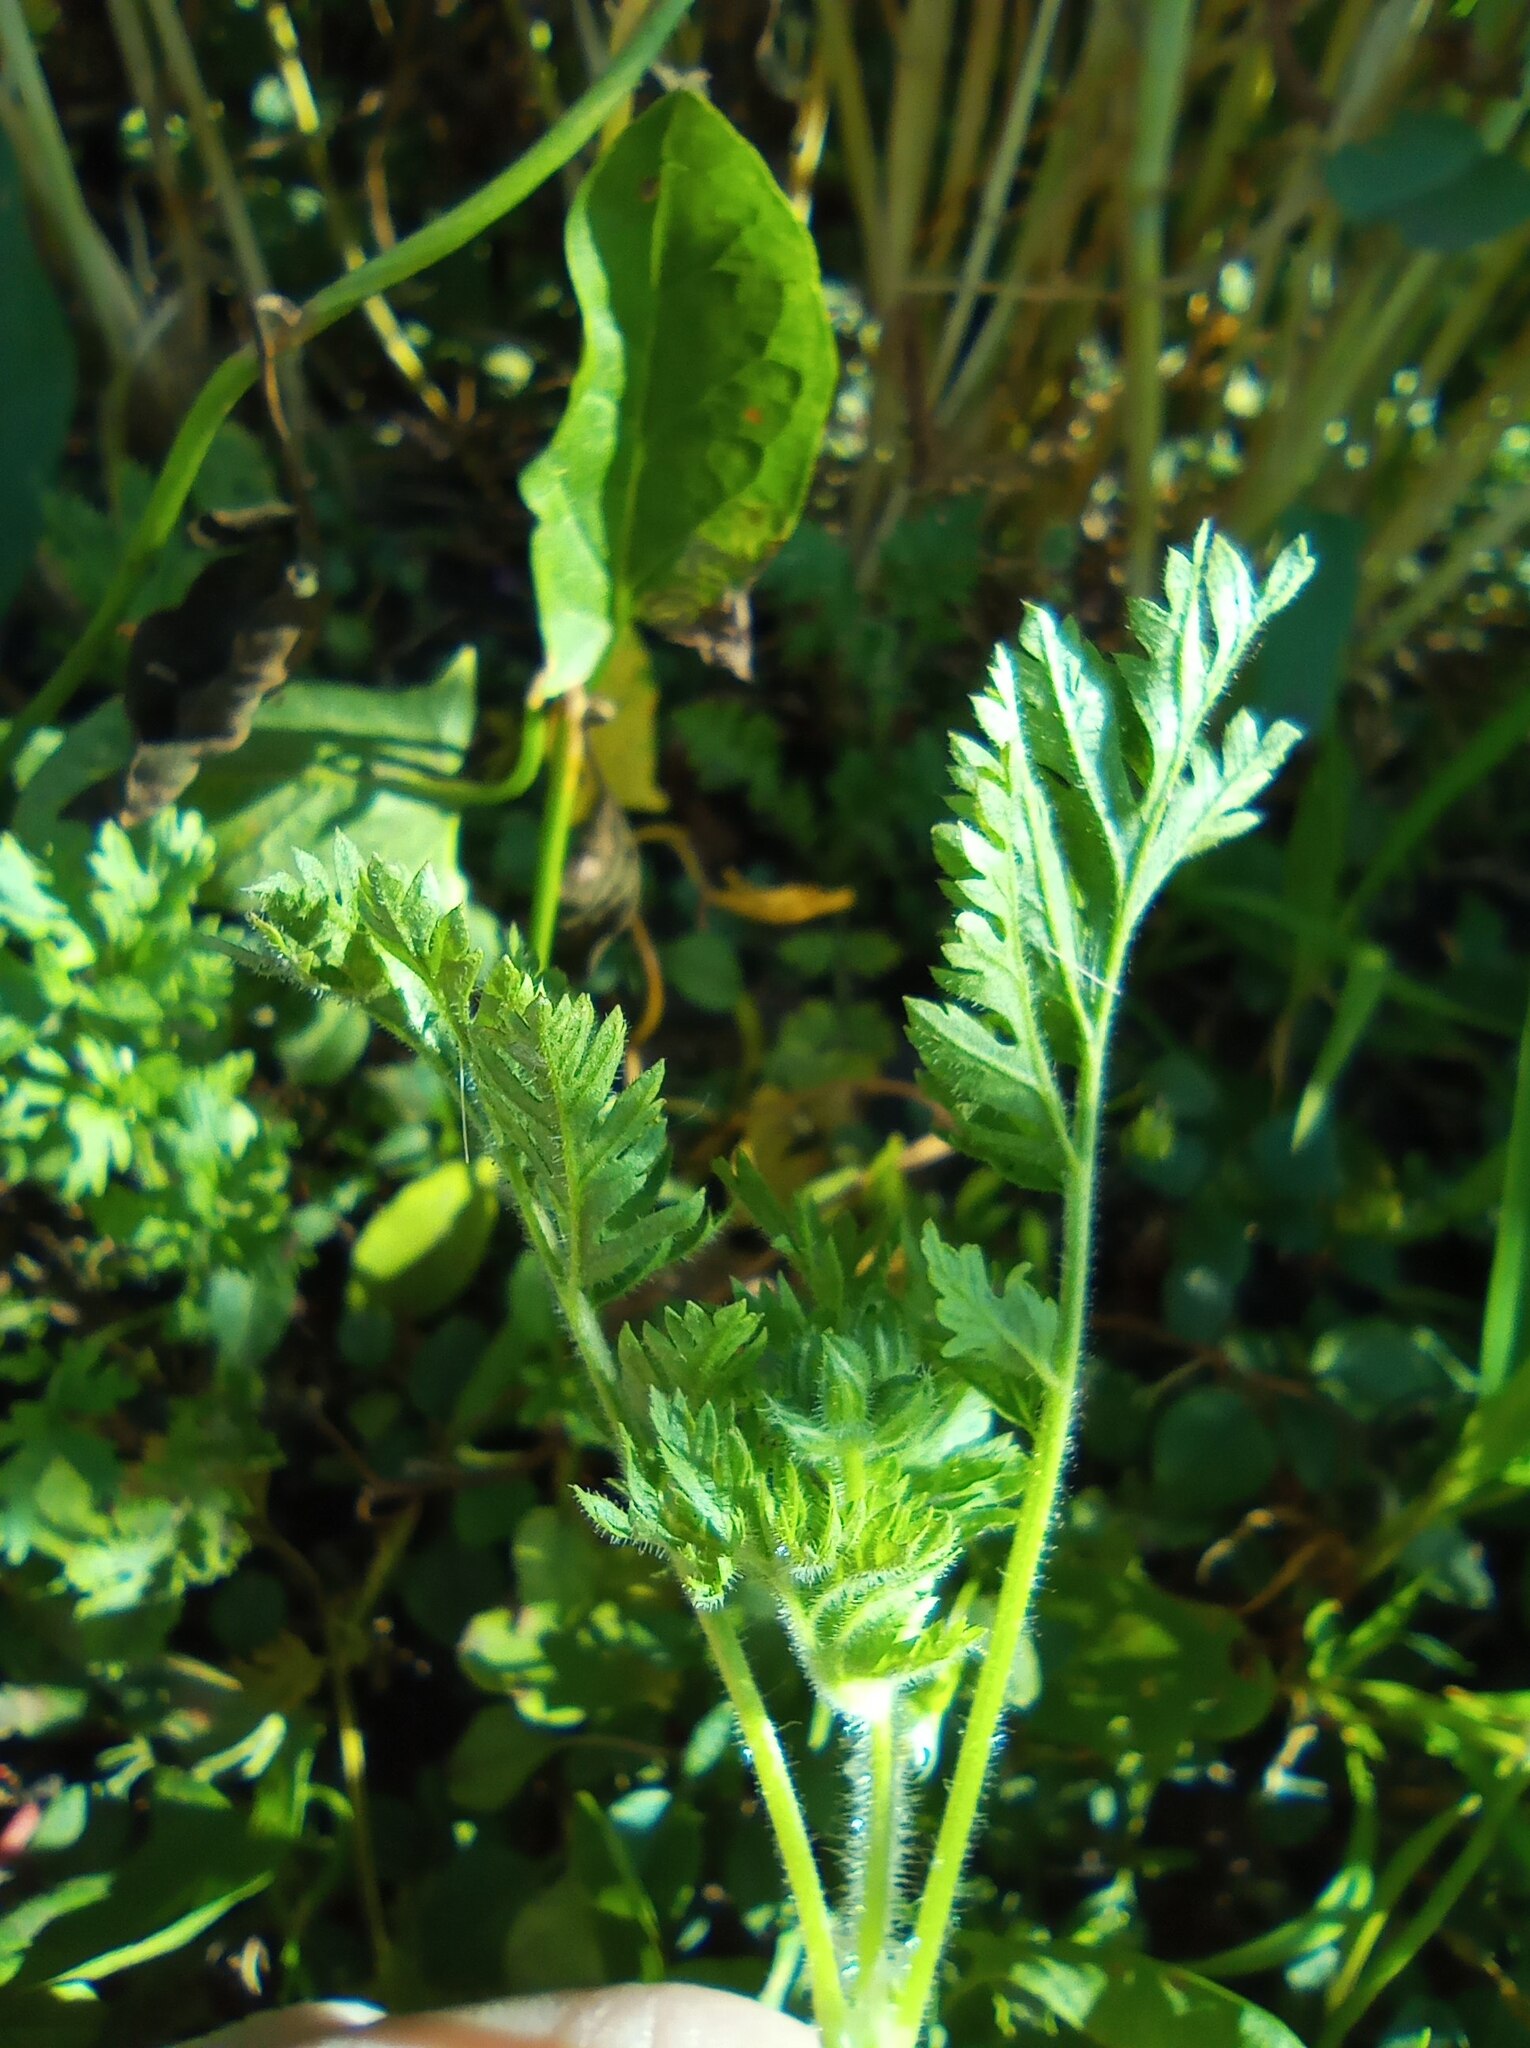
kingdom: Plantae
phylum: Tracheophyta
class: Magnoliopsida
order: Geraniales
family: Geraniaceae
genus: Erodium
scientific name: Erodium cicutarium
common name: Common stork's-bill
